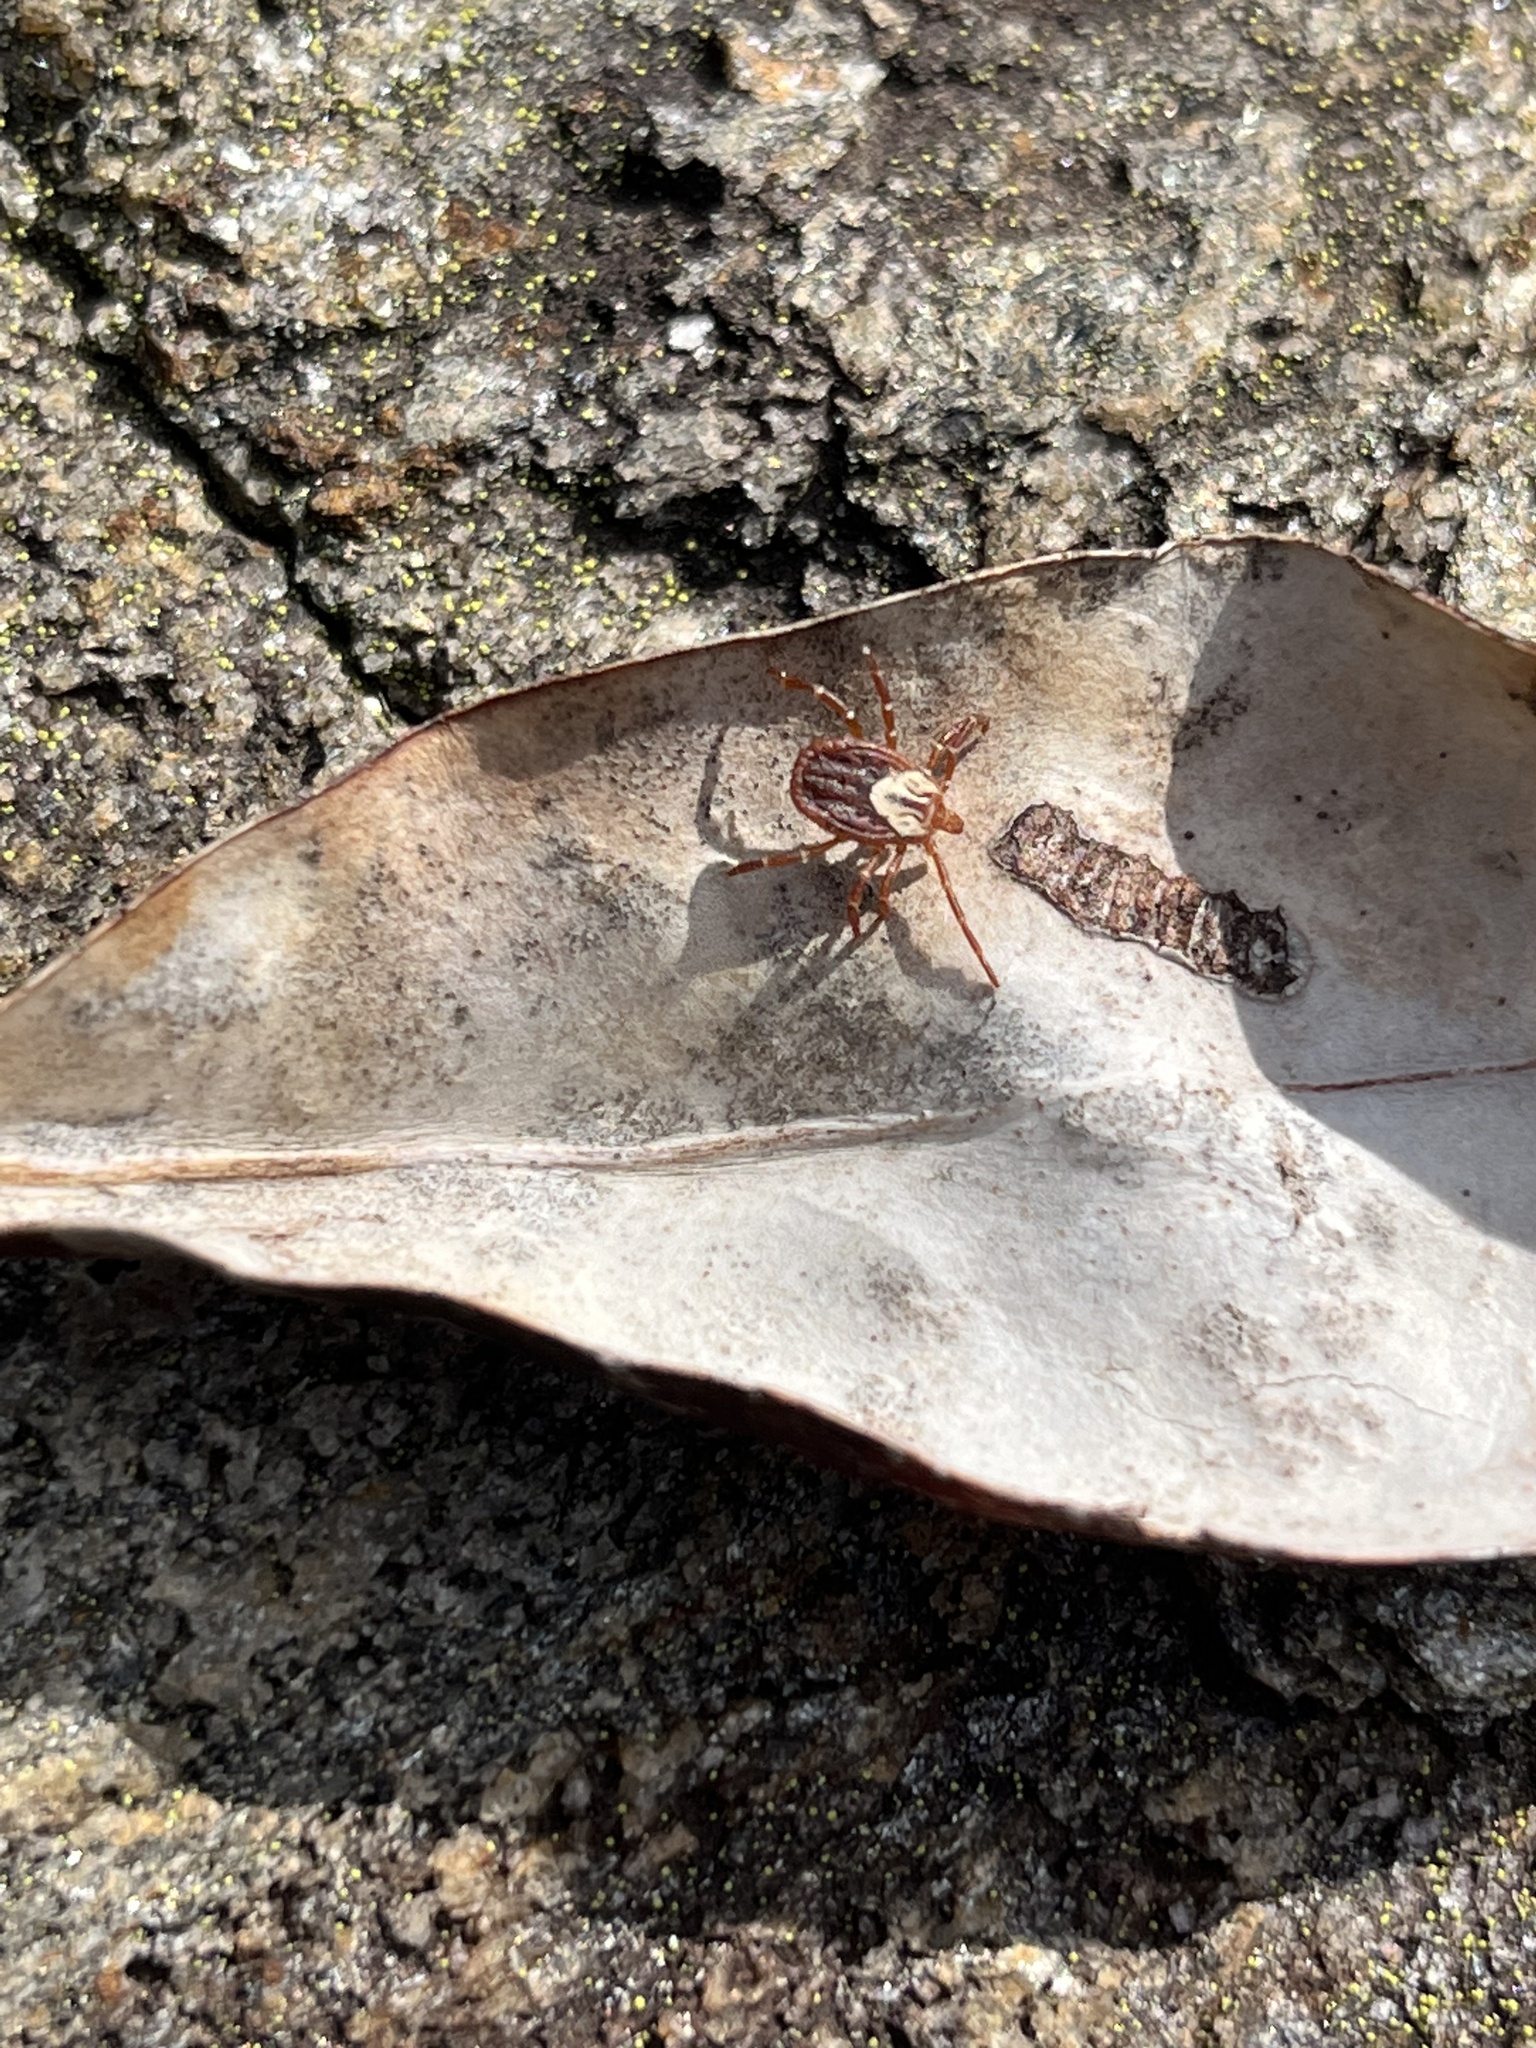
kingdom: Animalia
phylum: Arthropoda
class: Arachnida
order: Ixodida
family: Ixodidae
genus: Amblyomma
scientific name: Amblyomma maculatum
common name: Gulf coast tick
